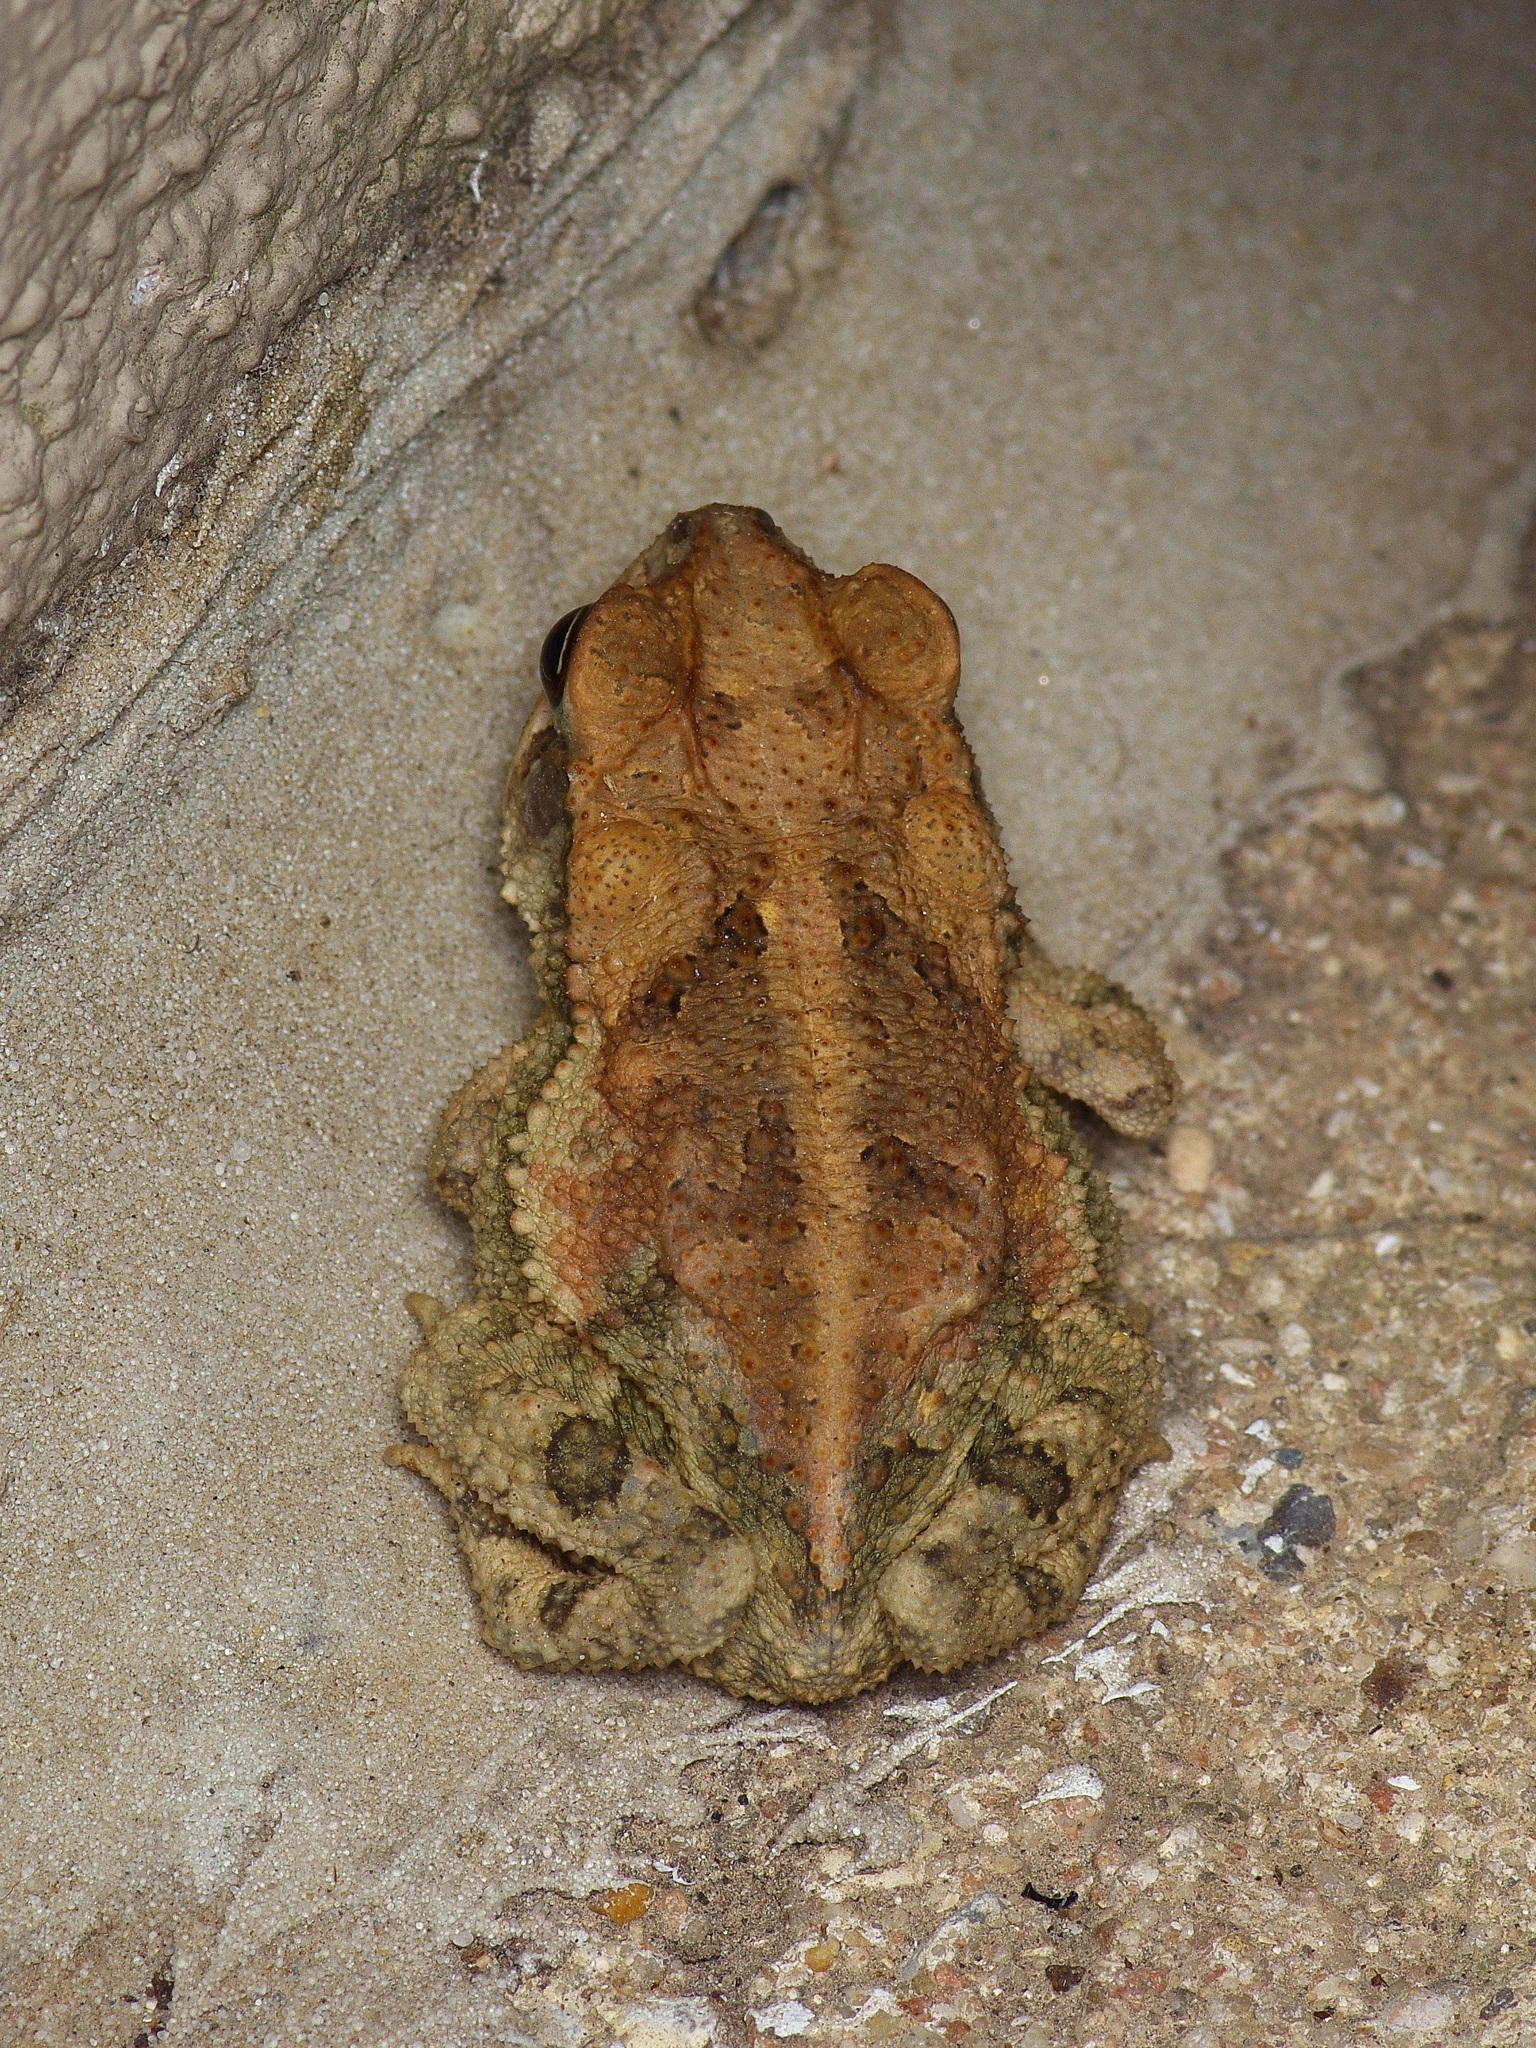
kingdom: Animalia
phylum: Chordata
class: Amphibia
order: Anura
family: Bufonidae
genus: Incilius
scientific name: Incilius nebulifer
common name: Gulf coast toad
